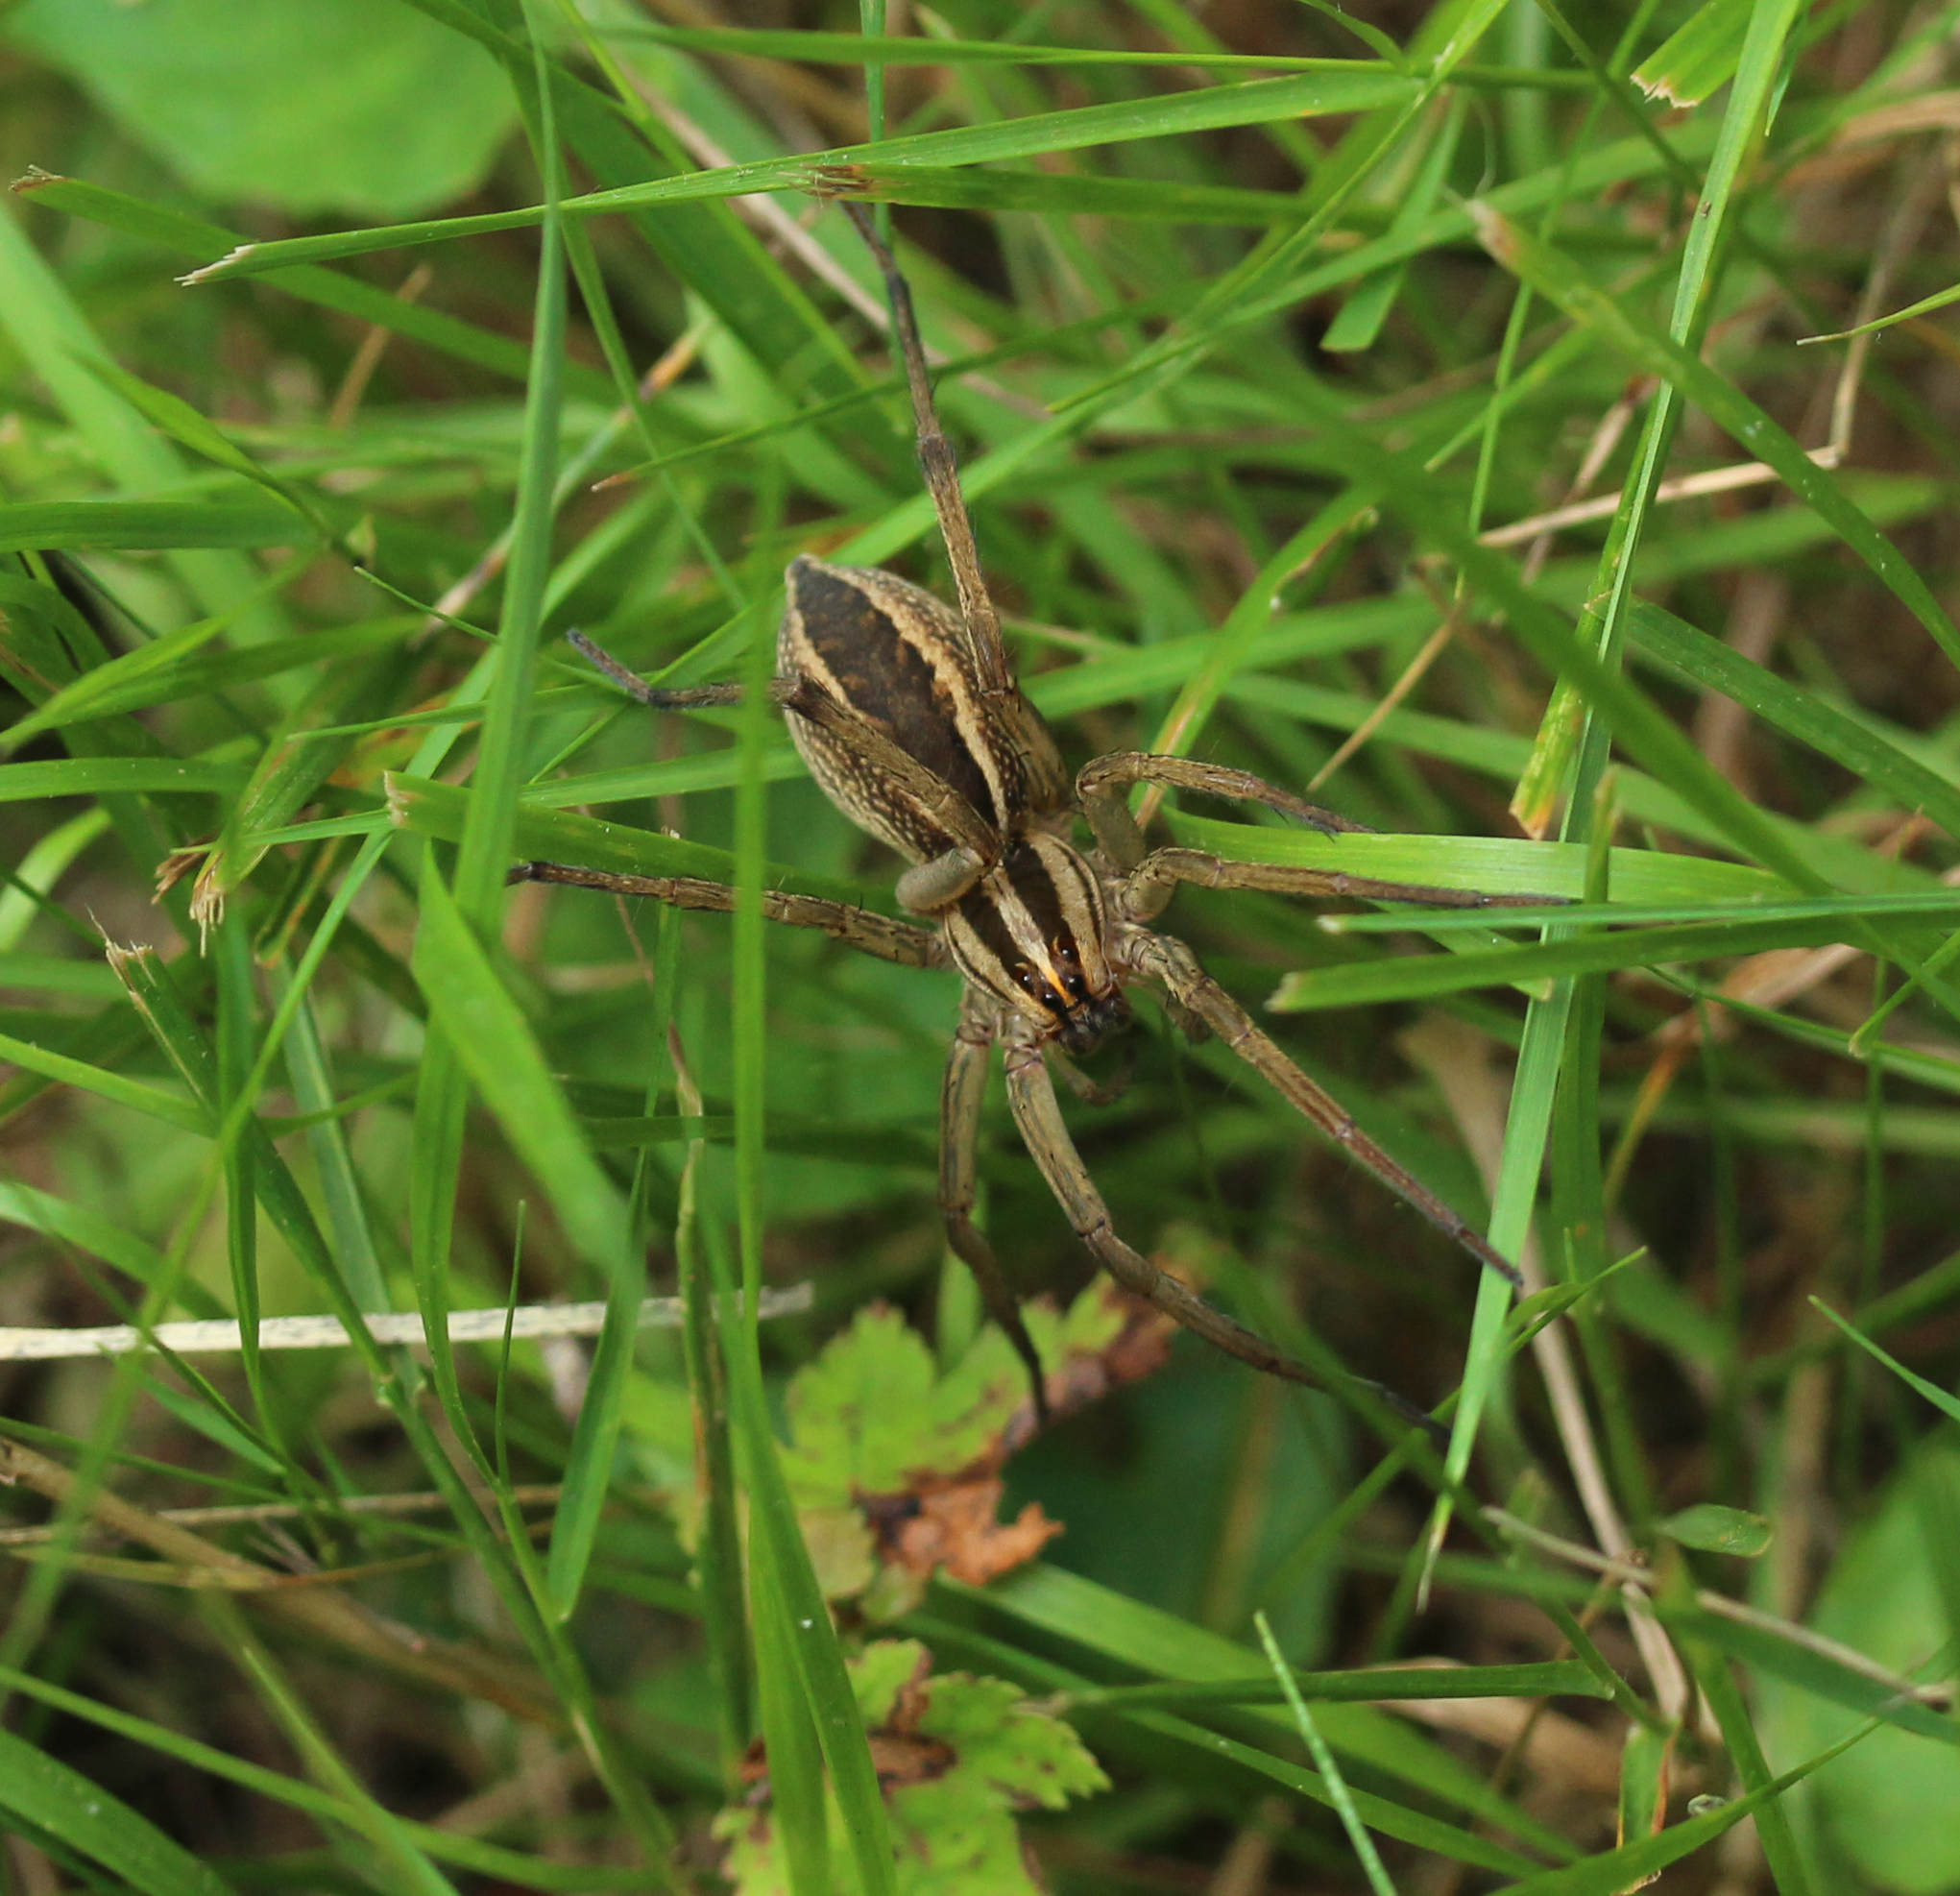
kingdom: Animalia
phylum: Arthropoda
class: Arachnida
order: Araneae
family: Lycosidae
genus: Rabidosa
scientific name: Rabidosa rabida
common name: Rabid wolf spider
